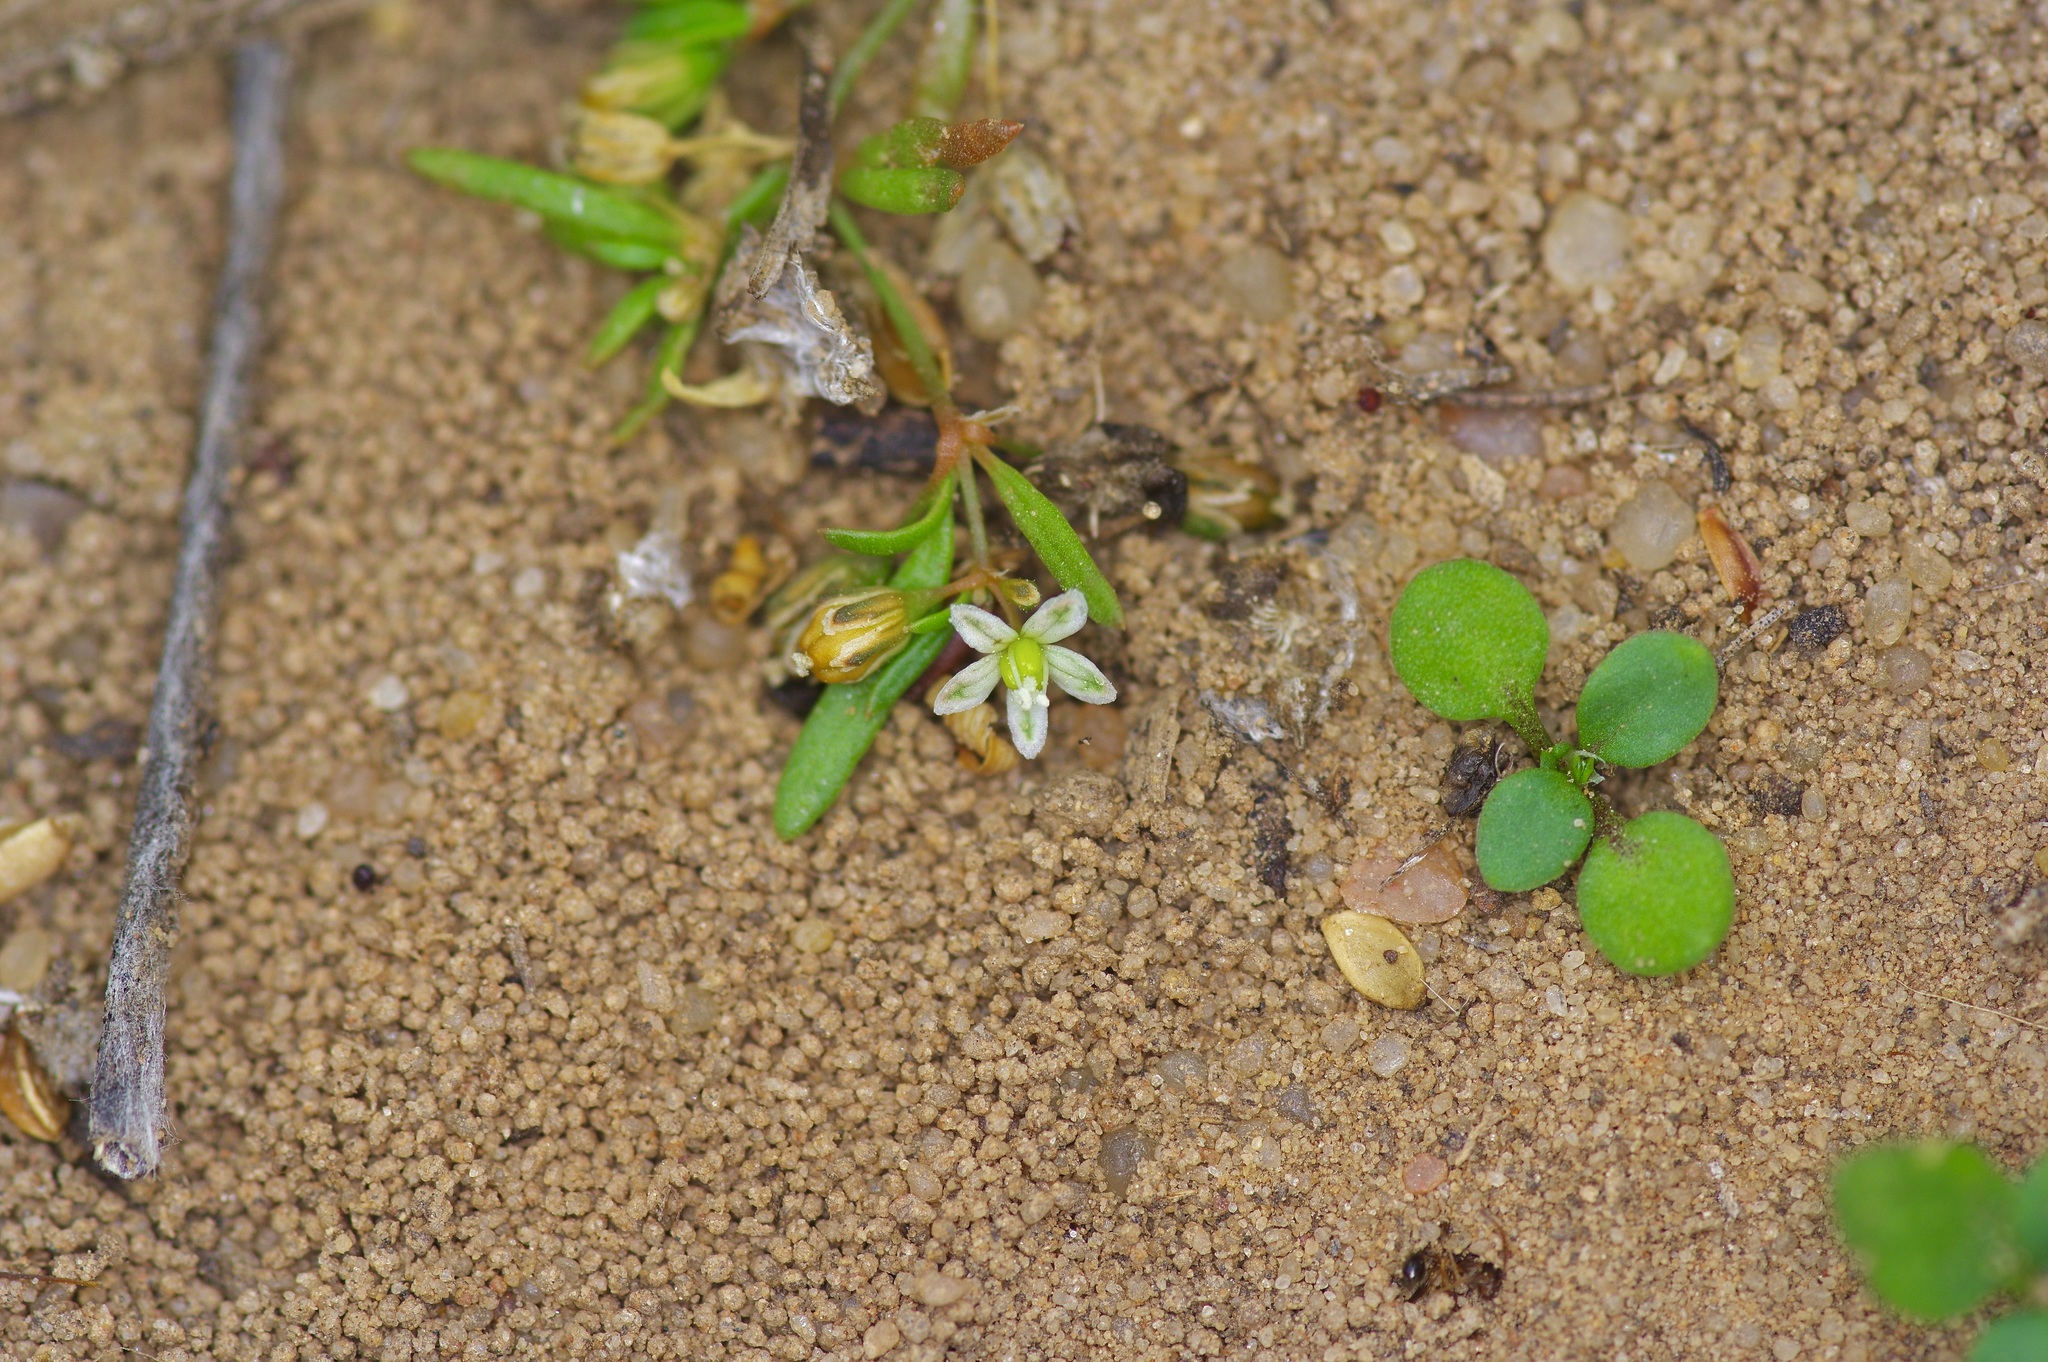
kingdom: Plantae
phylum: Tracheophyta
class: Magnoliopsida
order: Caryophyllales
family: Molluginaceae
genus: Mollugo
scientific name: Mollugo verticillata
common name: Green carpetweed
